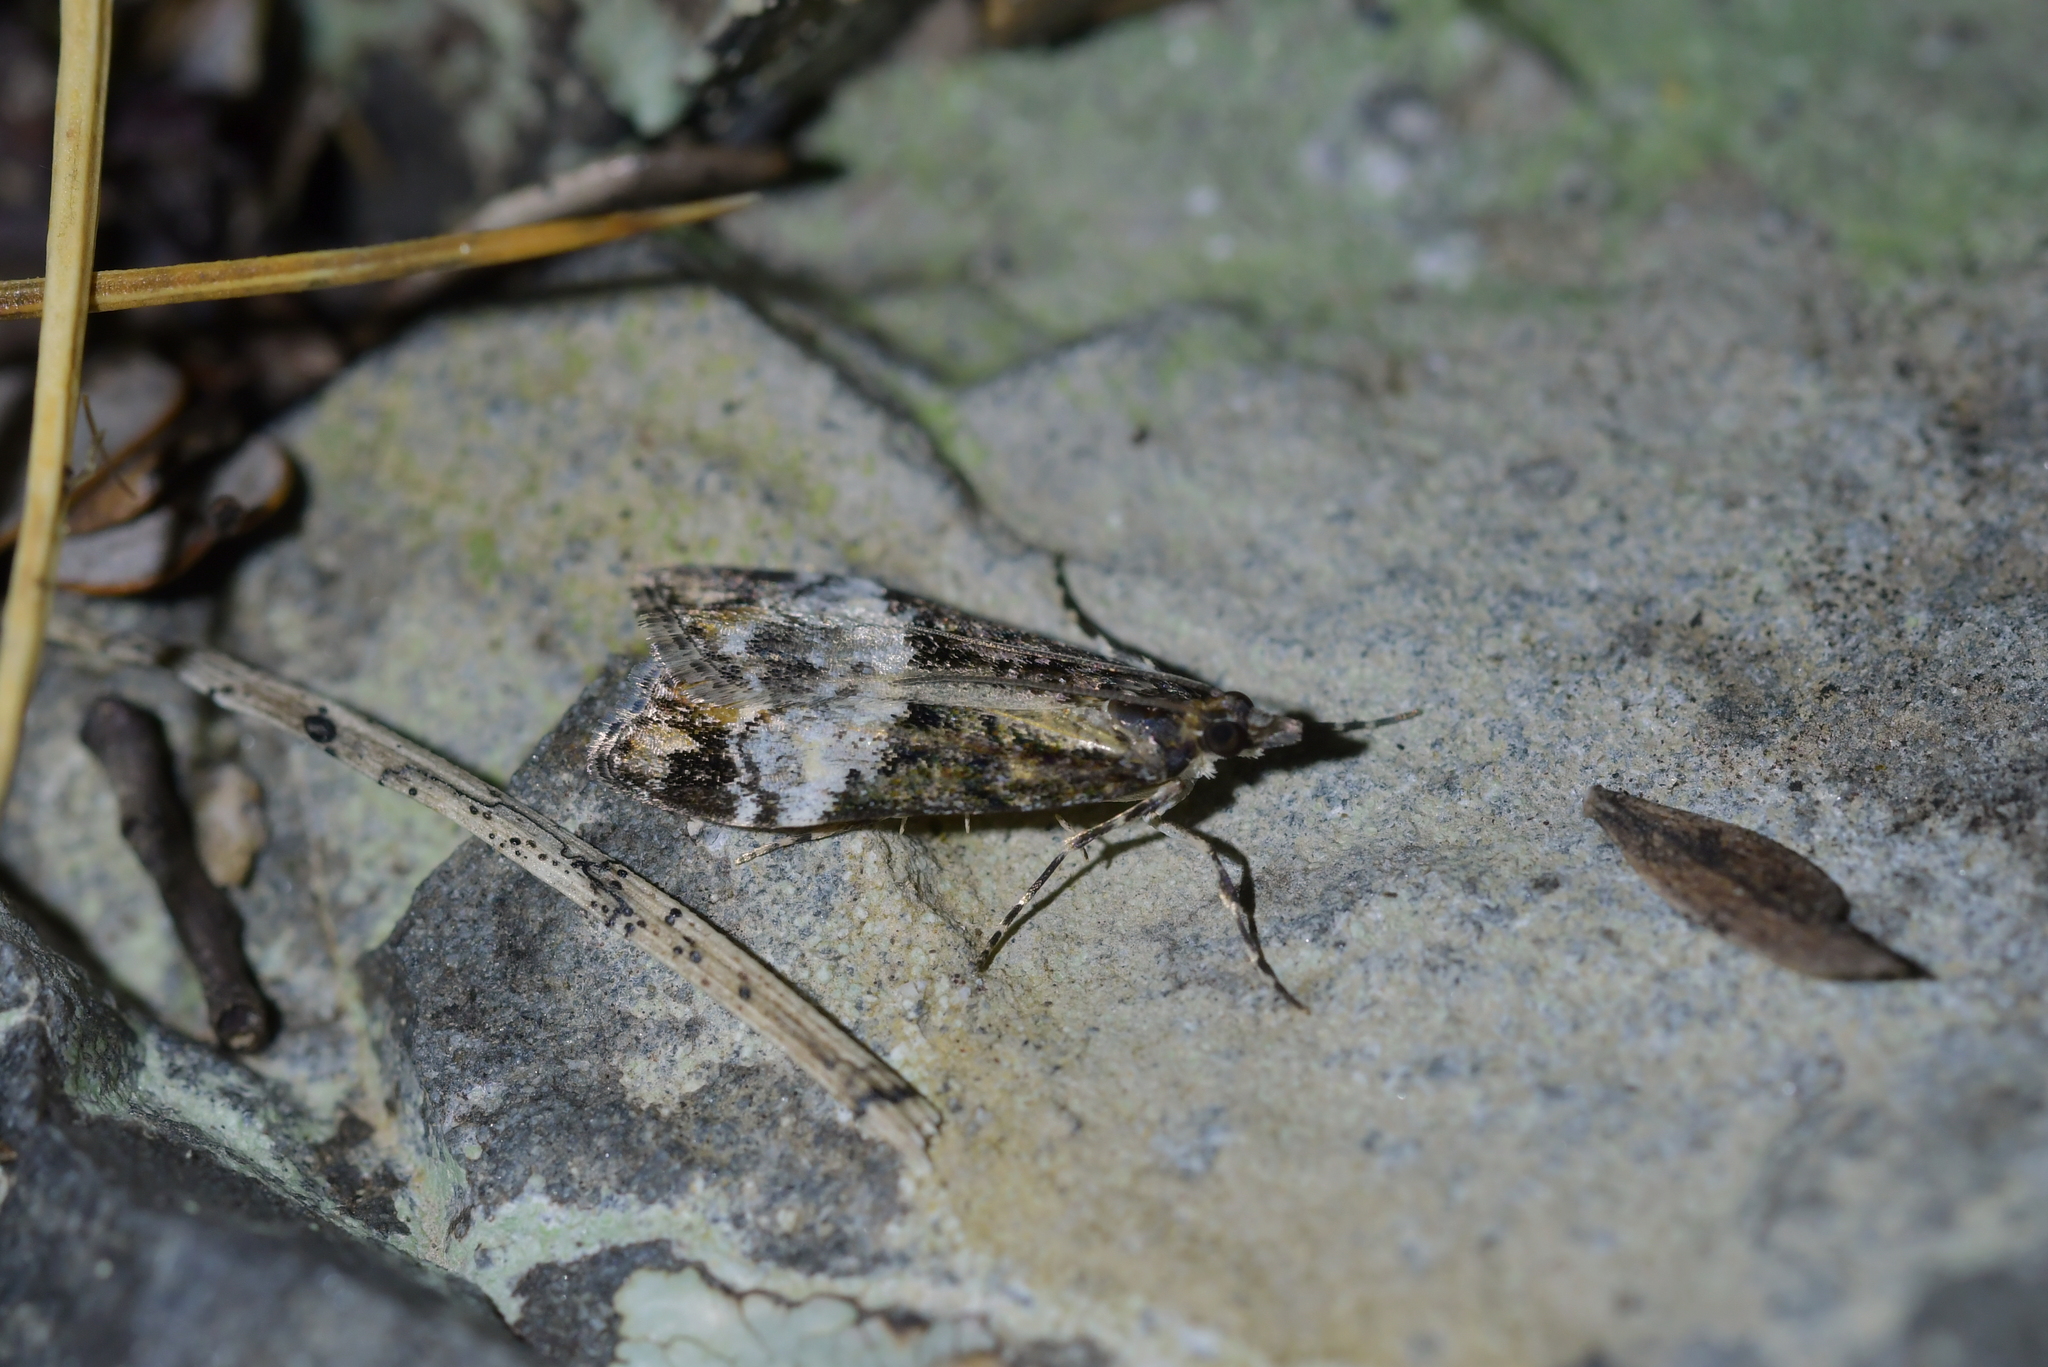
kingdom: Animalia
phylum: Arthropoda
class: Insecta
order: Lepidoptera
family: Crambidae
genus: Scoparia
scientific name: Scoparia minusculalis
